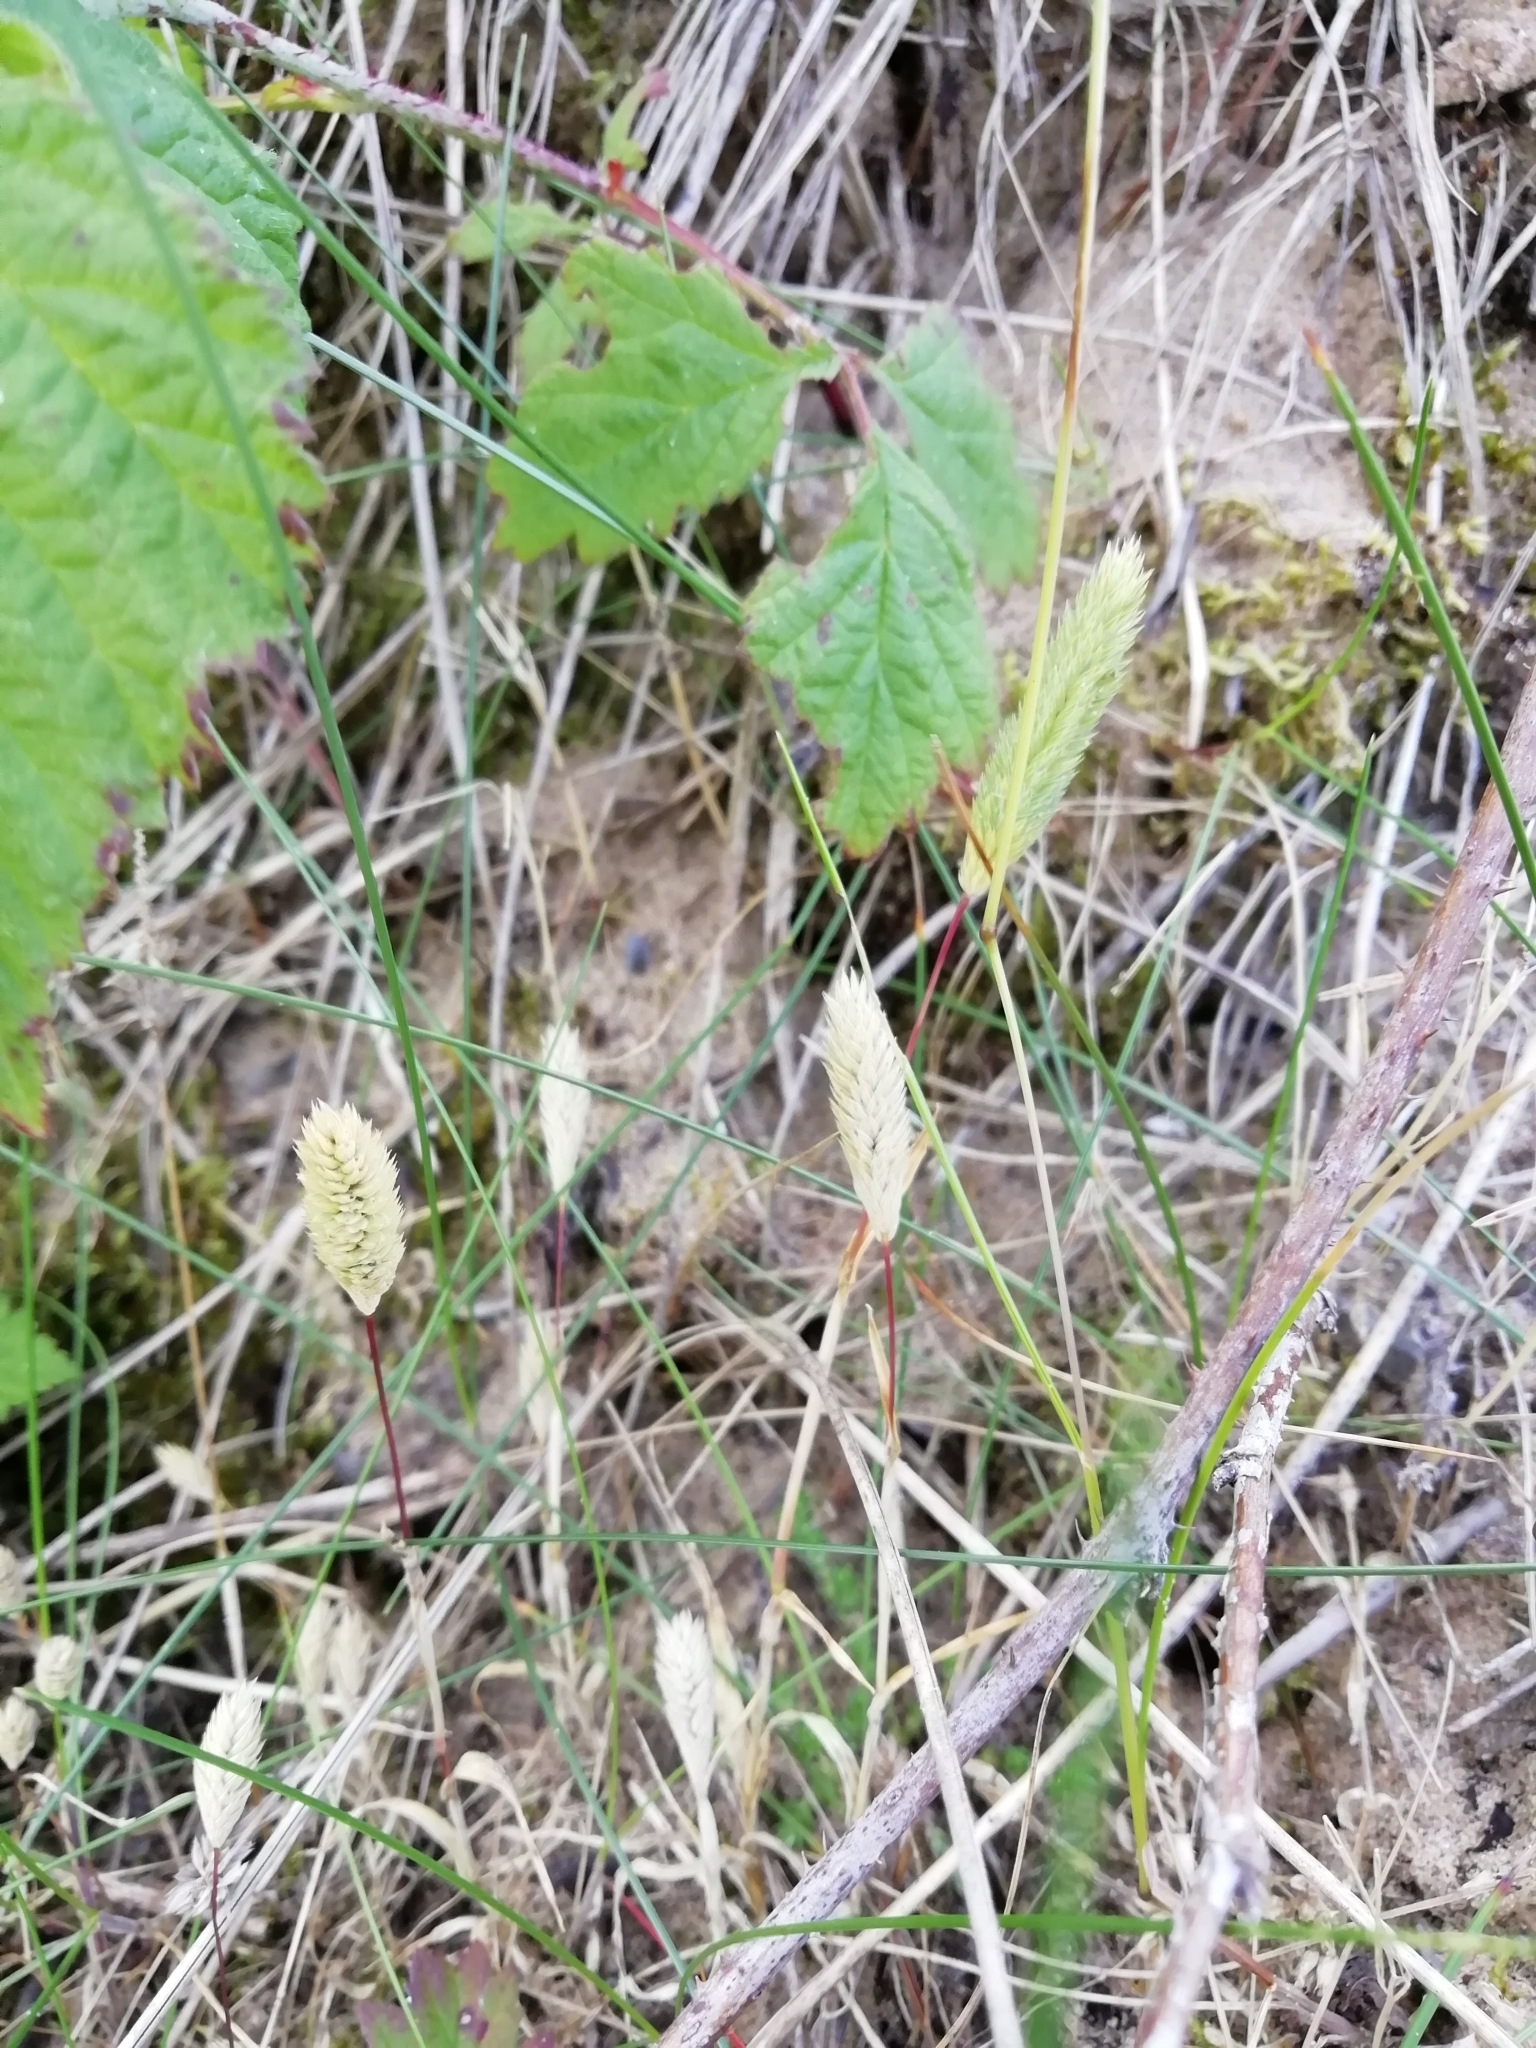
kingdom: Plantae
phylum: Tracheophyta
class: Liliopsida
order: Poales
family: Poaceae
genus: Phleum
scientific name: Phleum arenarium
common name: Sand cat's-tail
